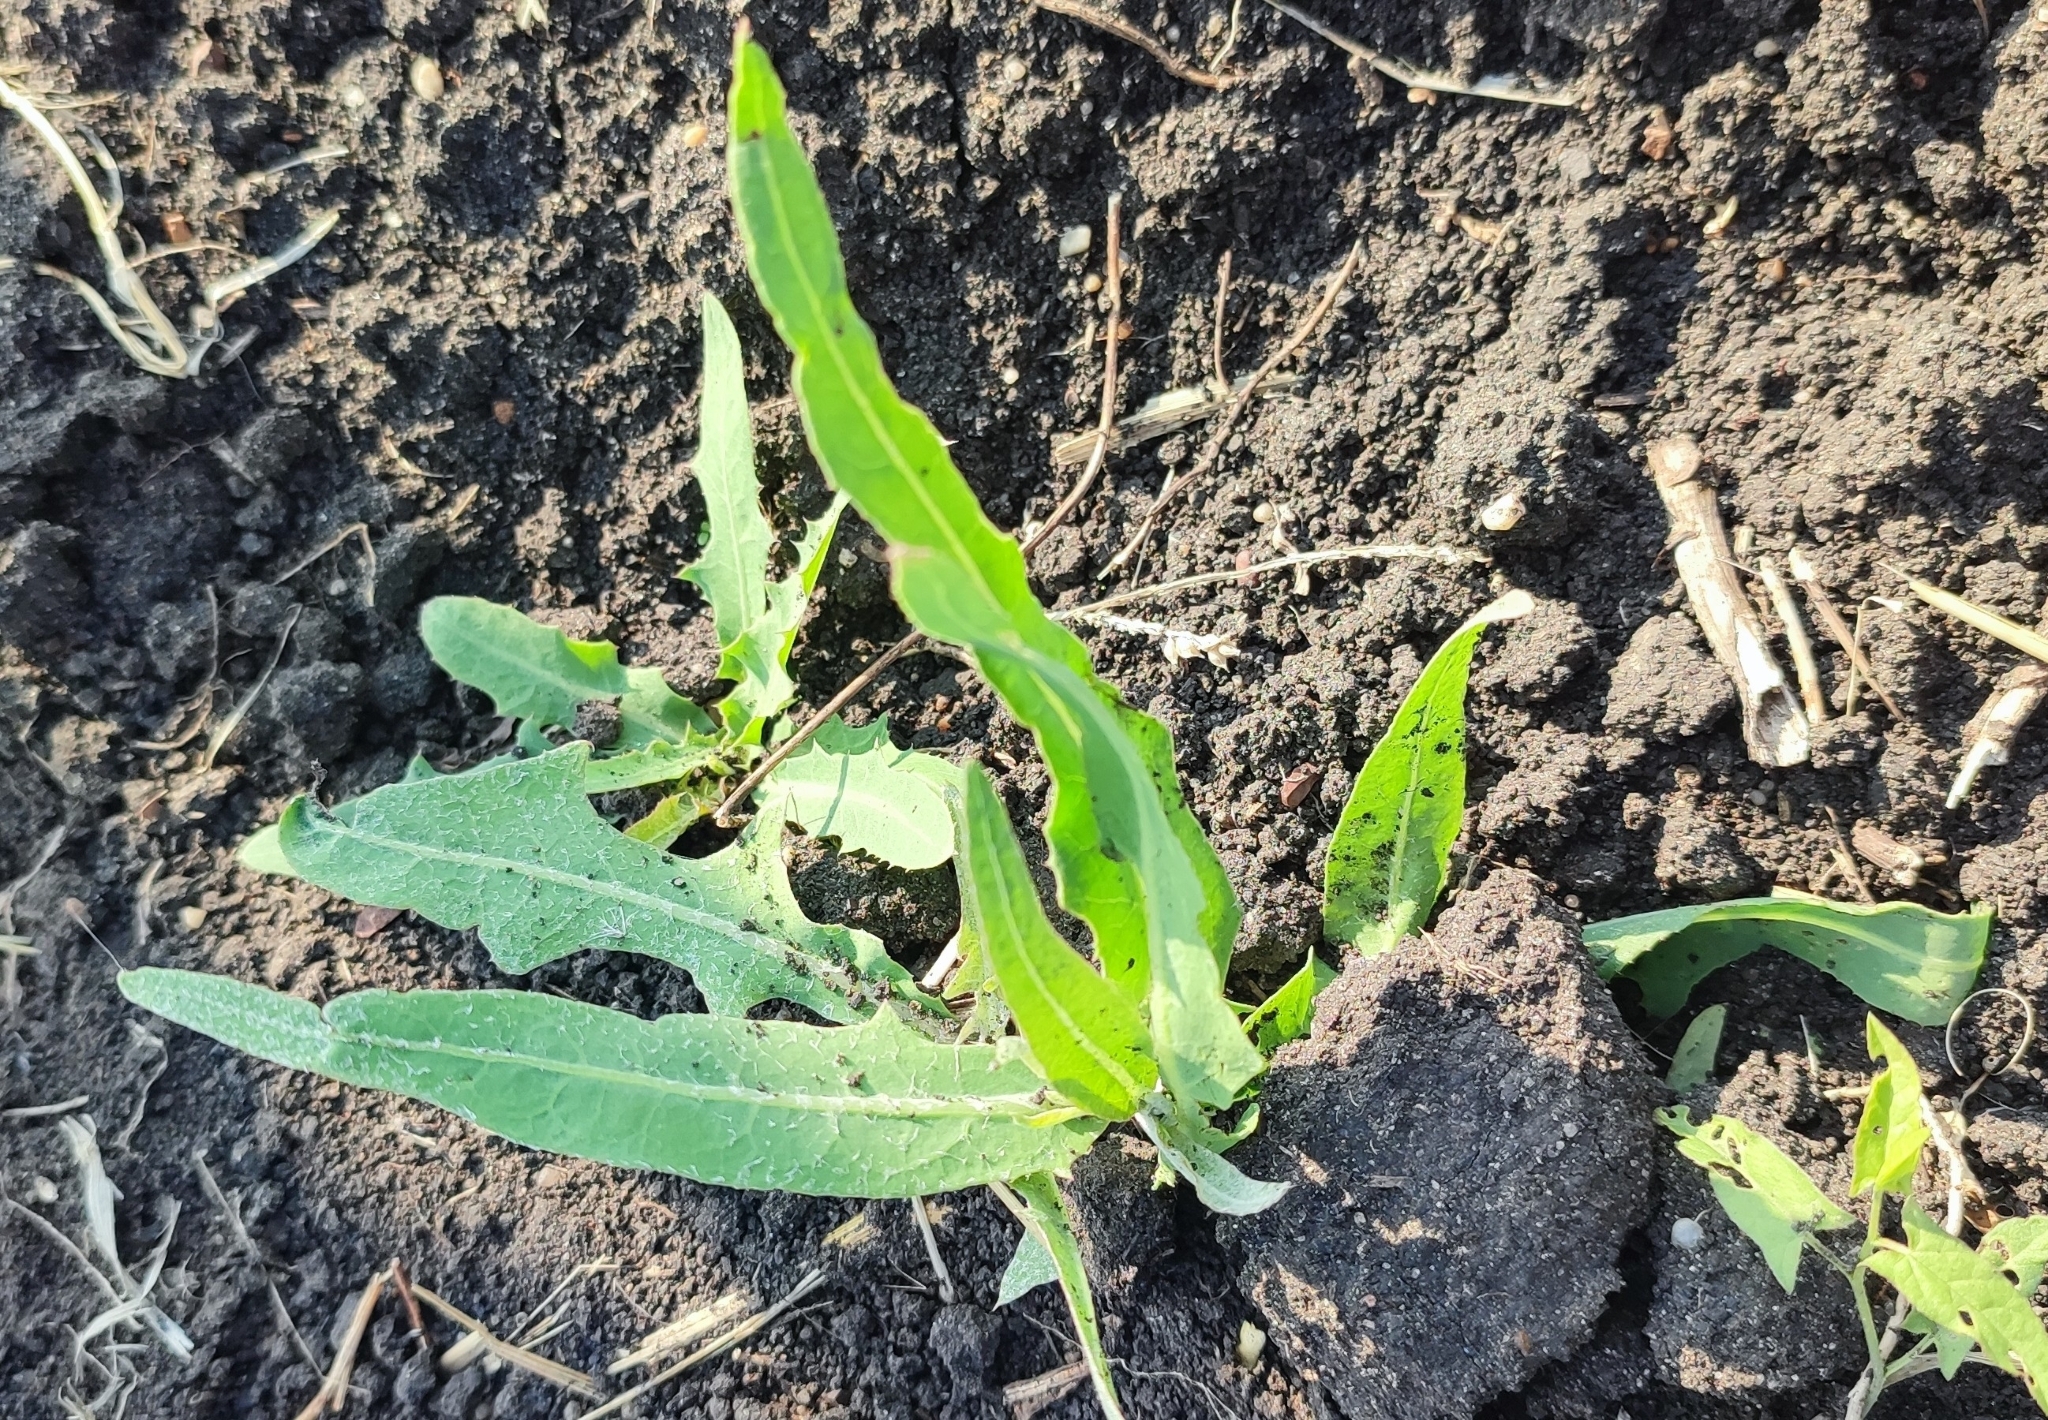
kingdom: Plantae
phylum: Tracheophyta
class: Magnoliopsida
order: Asterales
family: Asteraceae
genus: Lactuca
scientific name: Lactuca tatarica
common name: Blue lettuce
